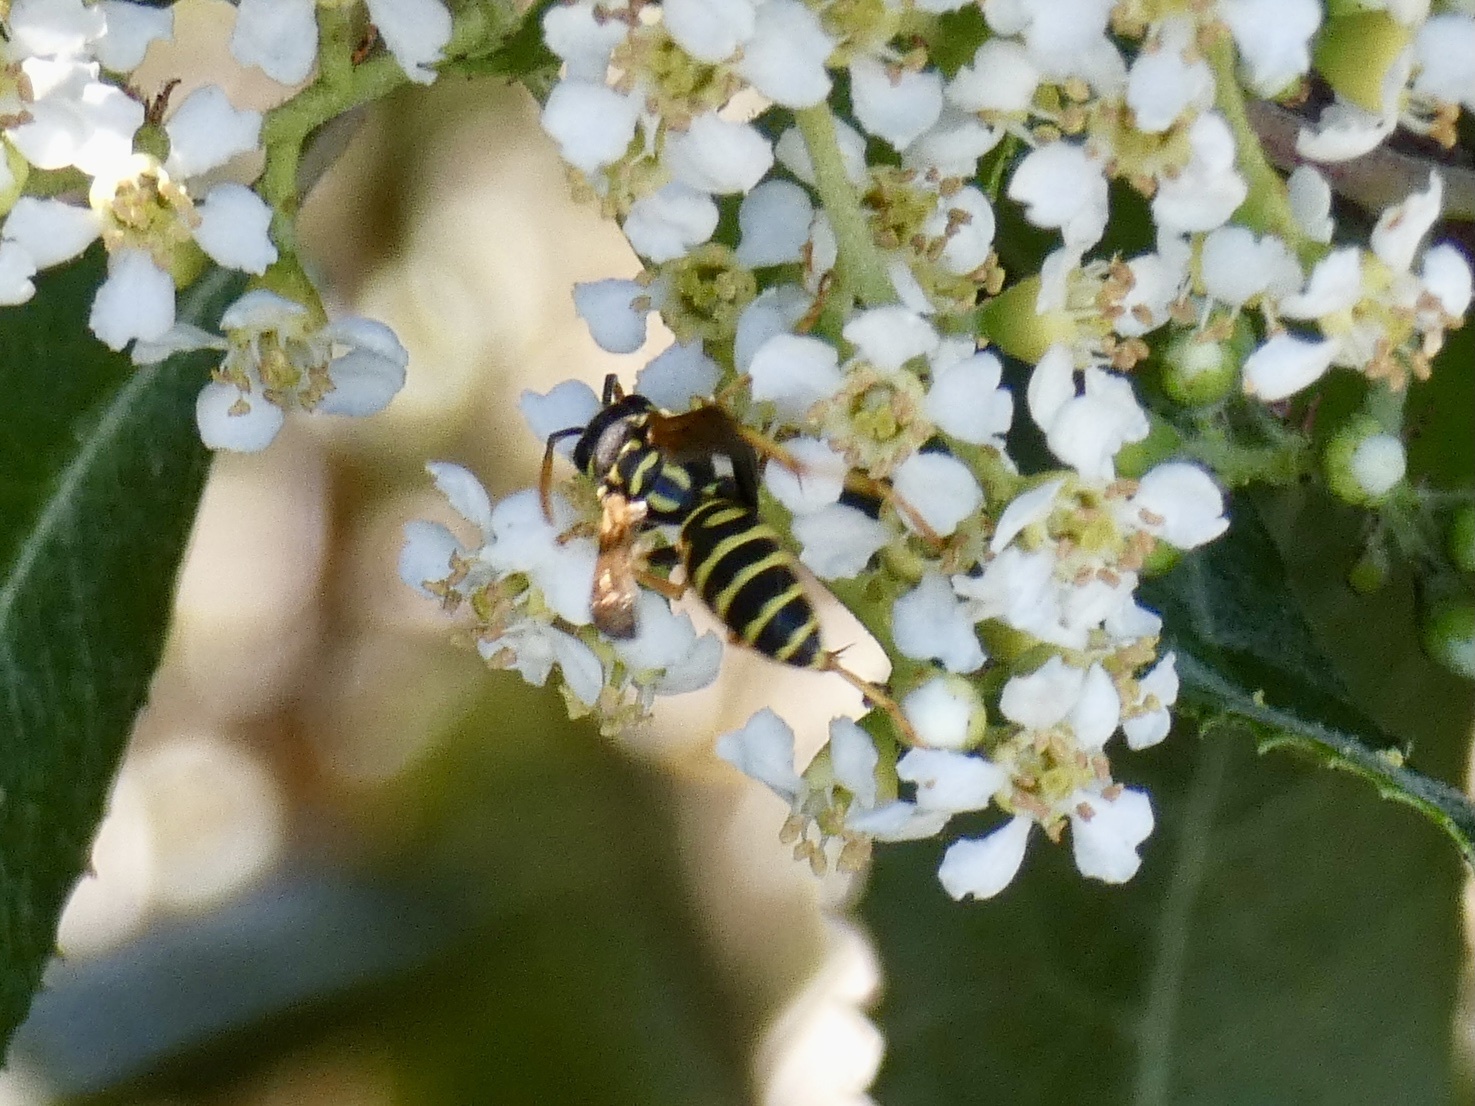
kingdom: Animalia
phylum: Arthropoda
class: Insecta
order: Hymenoptera
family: Eumenidae
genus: Polistes
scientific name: Polistes dominula
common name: Paper wasp
